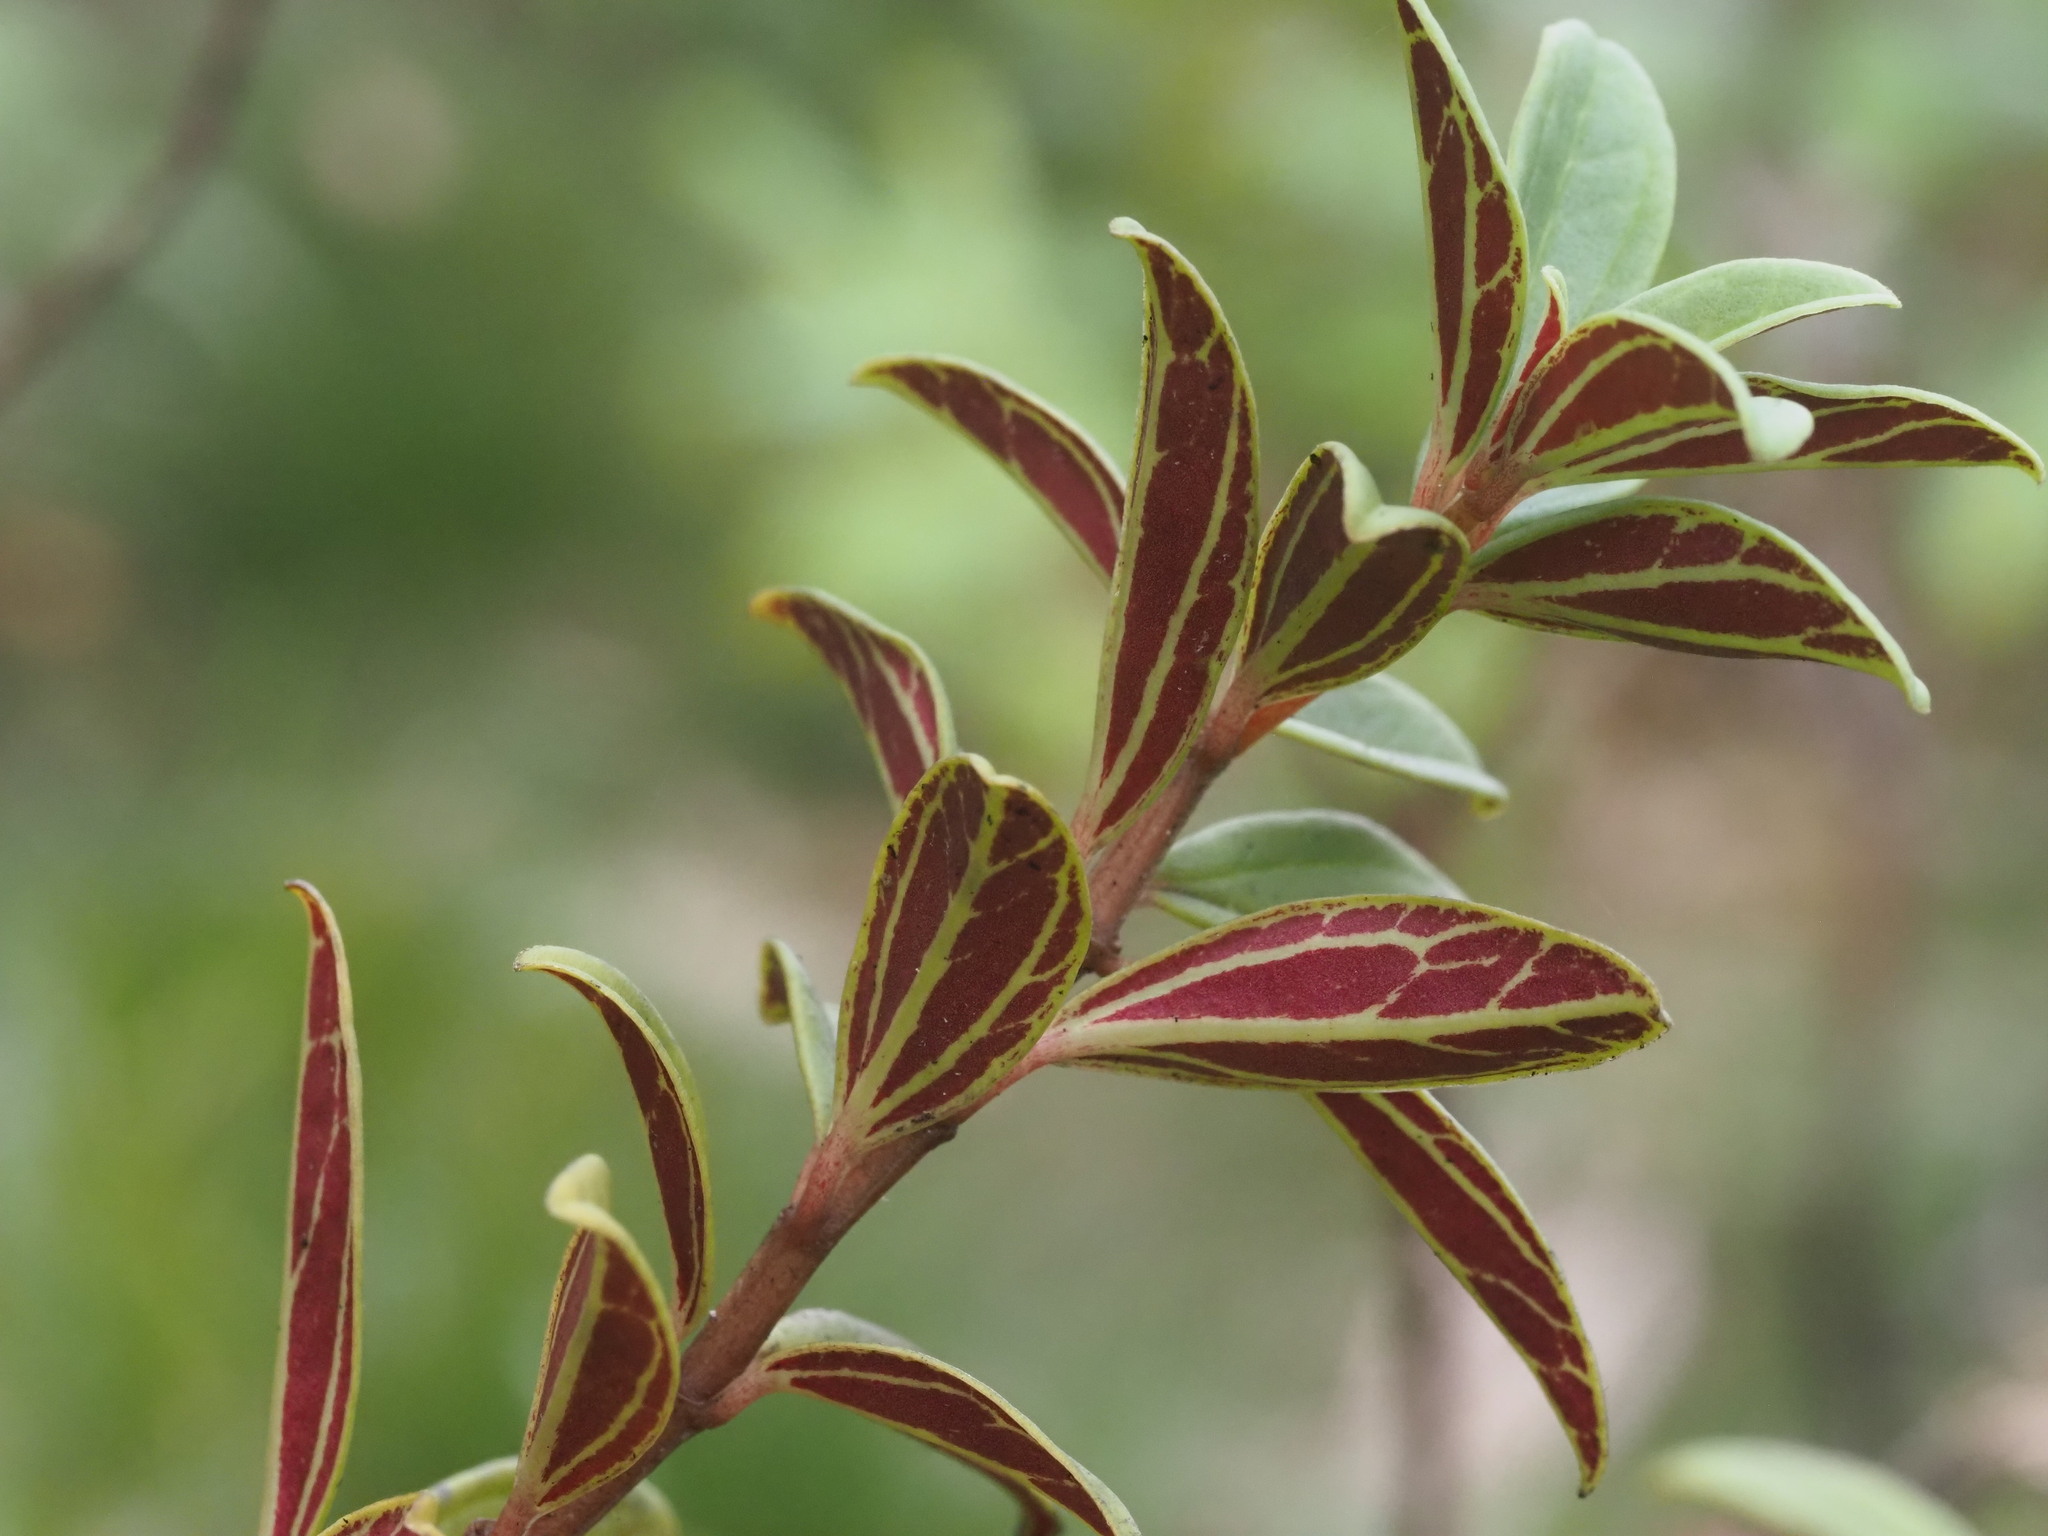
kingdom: Plantae
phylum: Tracheophyta
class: Magnoliopsida
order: Piperales
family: Piperaceae
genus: Peperomia
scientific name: Peperomia hesperomannii
